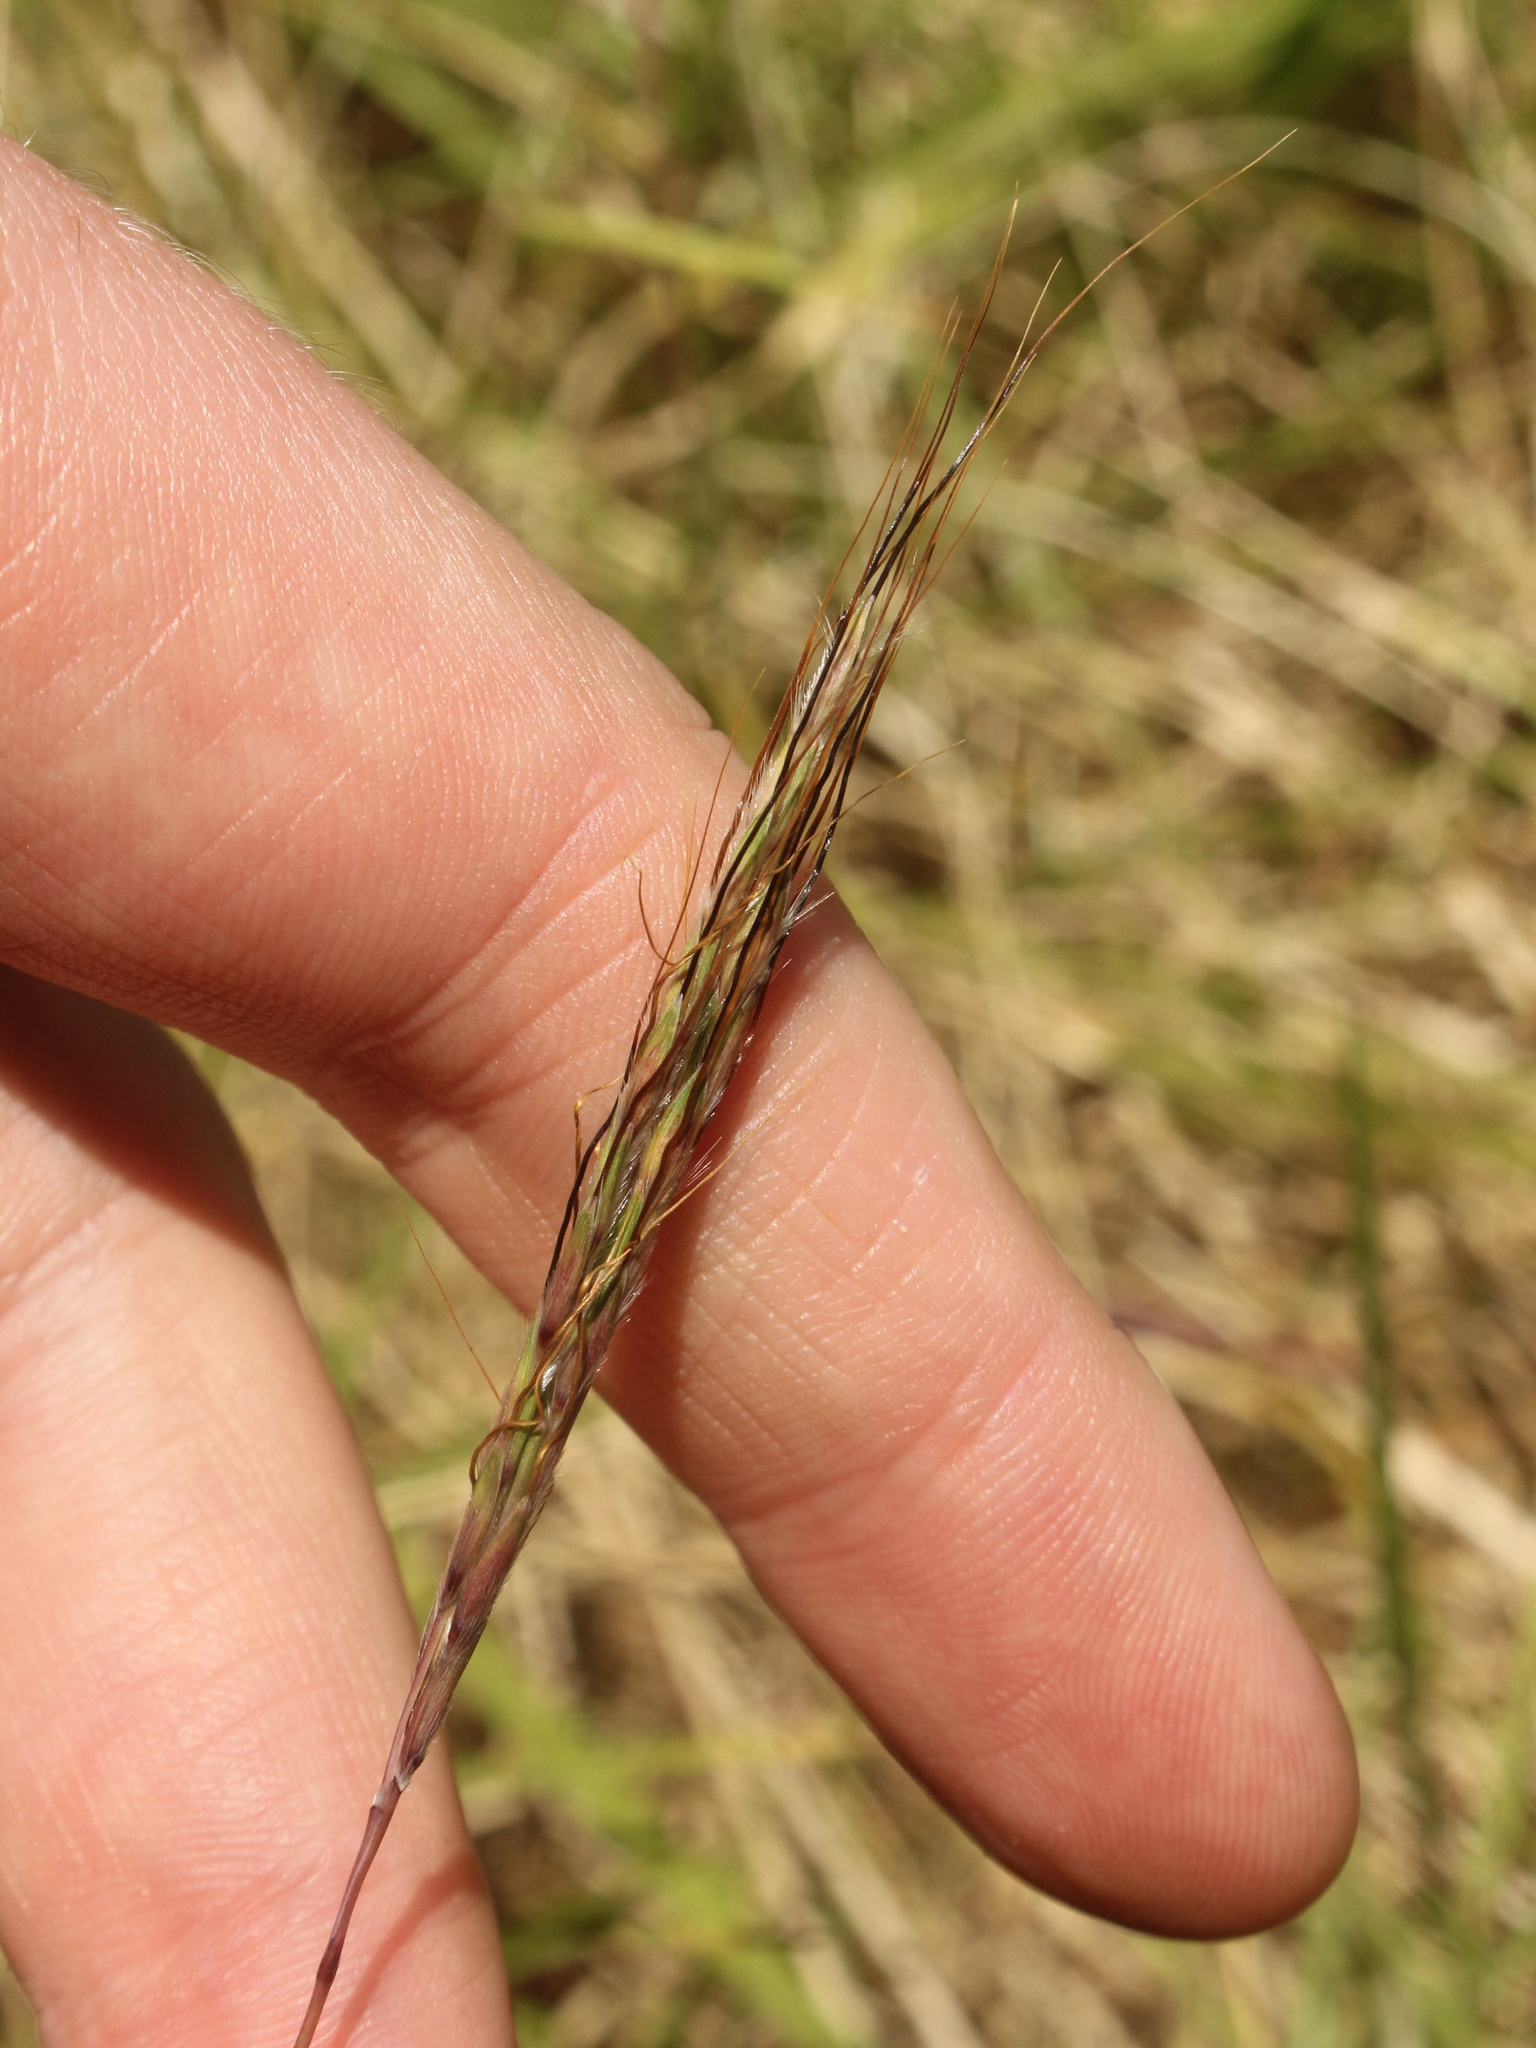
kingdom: Plantae
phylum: Tracheophyta
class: Liliopsida
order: Poales
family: Poaceae
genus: Bothriochloa
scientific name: Bothriochloa macra
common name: Pitted beard grass
